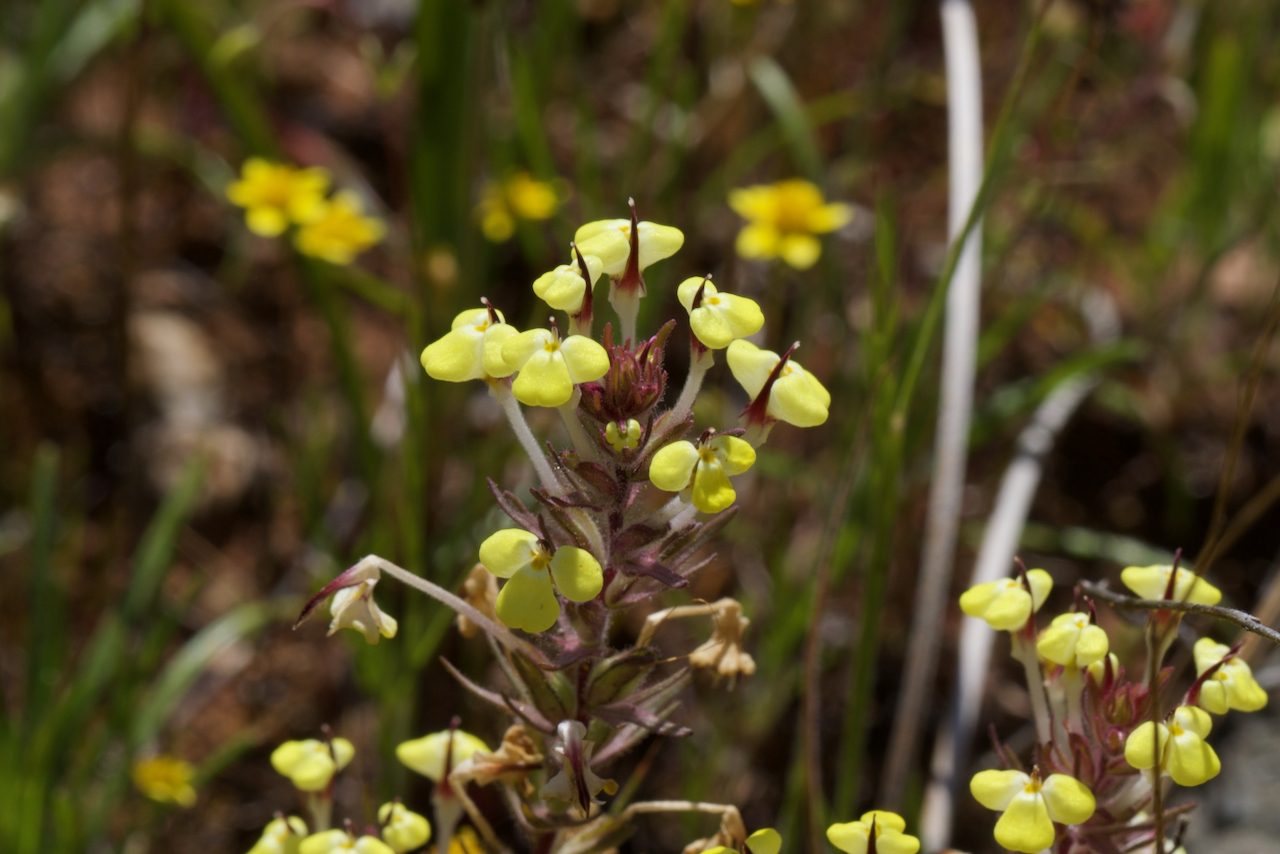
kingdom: Plantae
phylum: Tracheophyta
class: Magnoliopsida
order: Lamiales
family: Orobanchaceae
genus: Triphysaria
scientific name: Triphysaria eriantha
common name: Johnny-tuck
